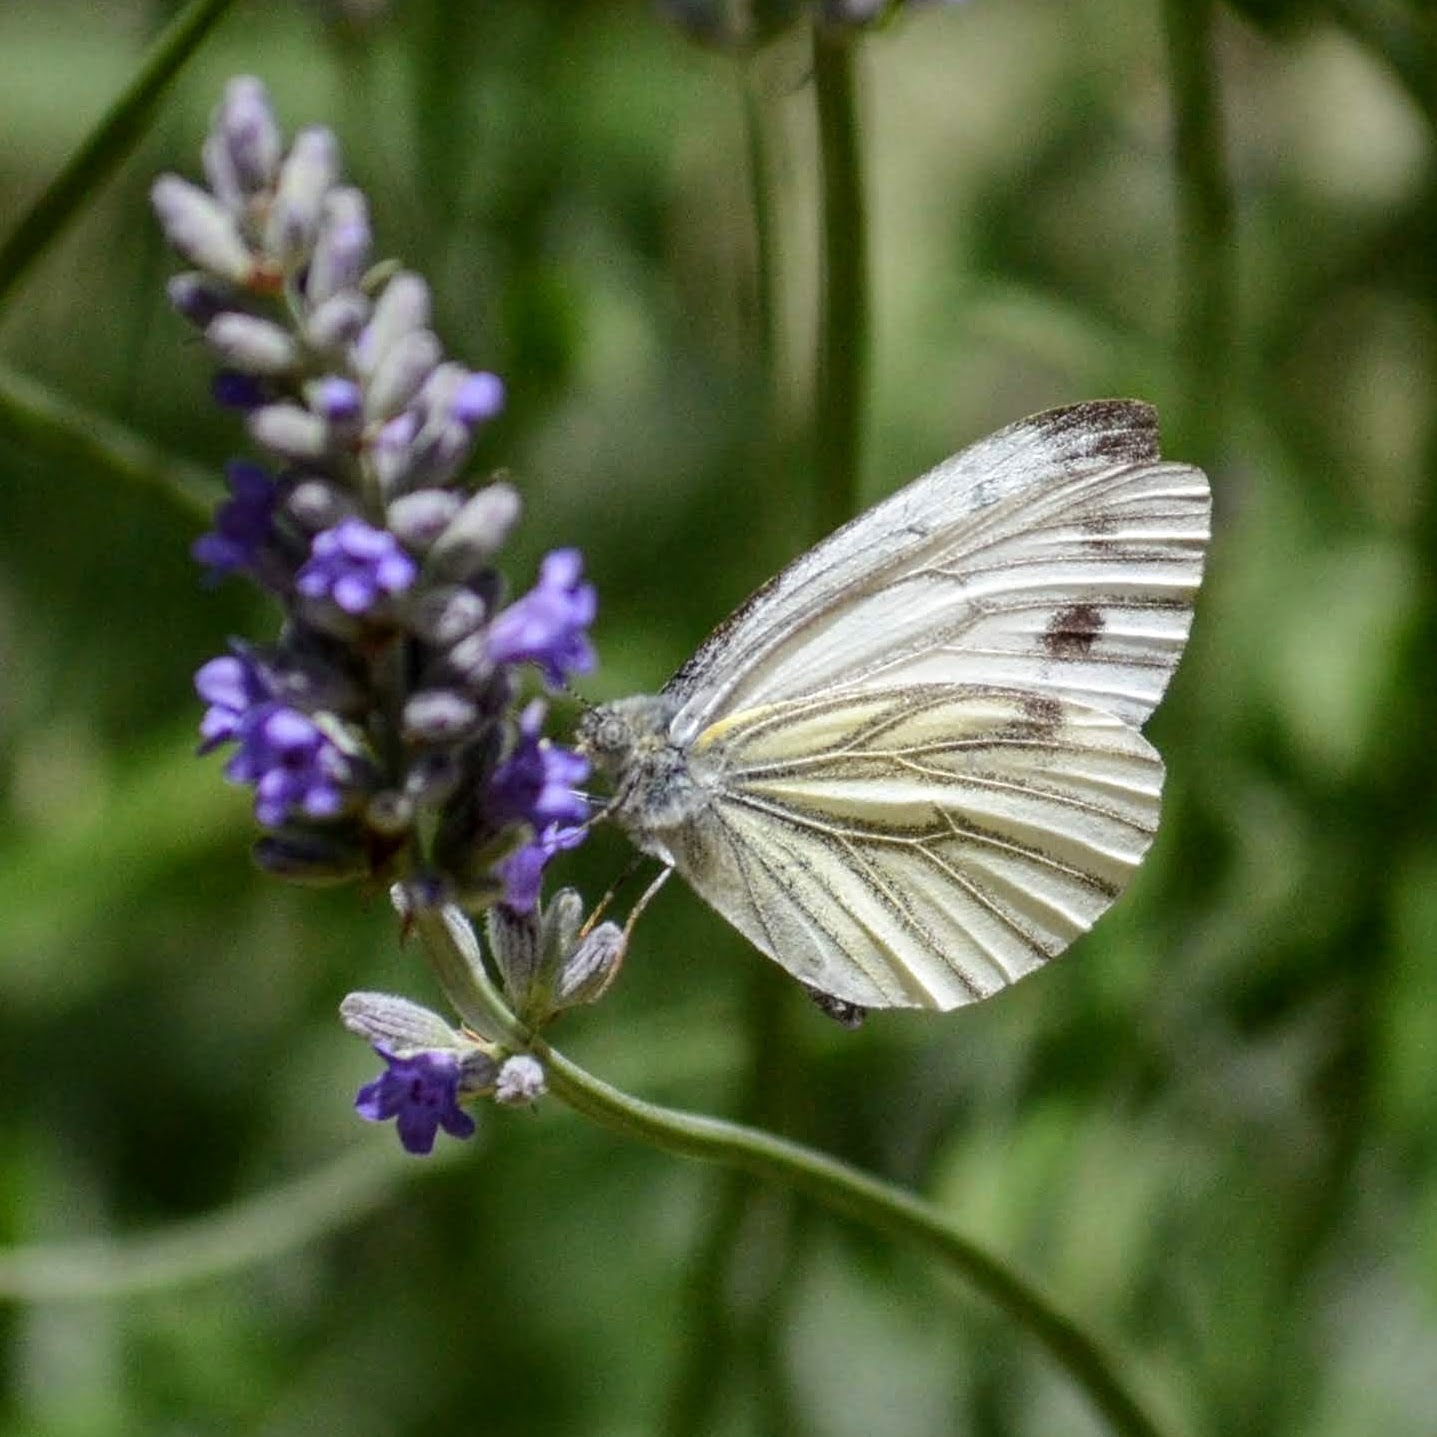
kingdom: Animalia
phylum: Arthropoda
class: Insecta
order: Lepidoptera
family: Pieridae
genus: Pieris
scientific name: Pieris napi
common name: Green-veined white
